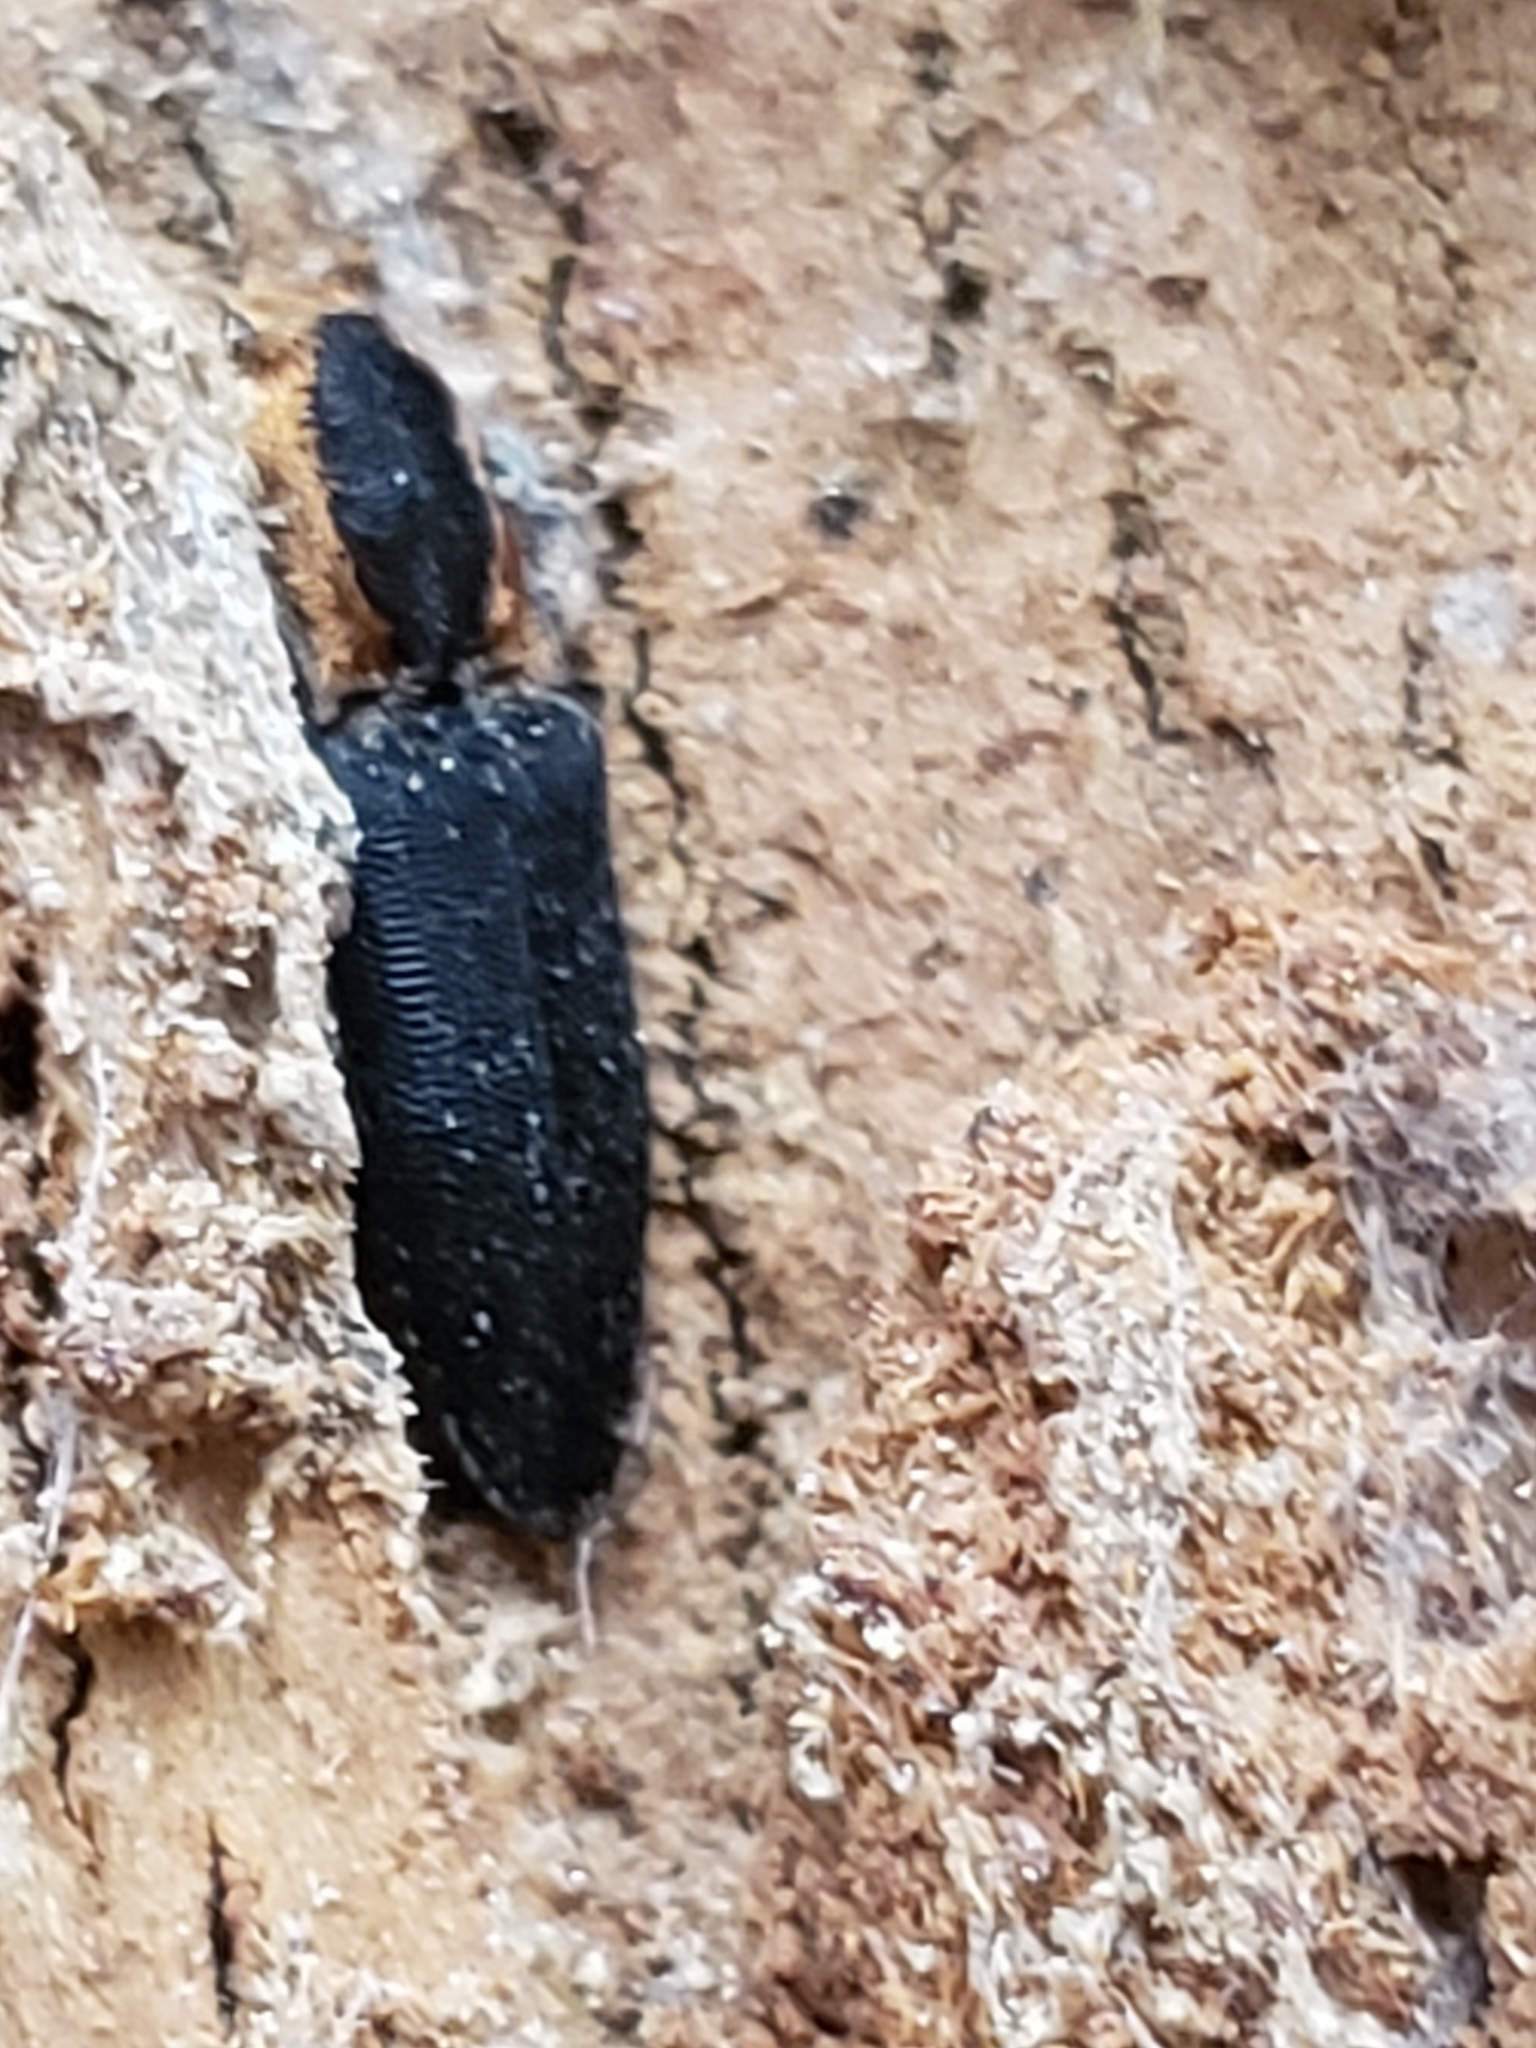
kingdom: Animalia
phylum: Arthropoda
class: Insecta
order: Coleoptera
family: Elateridae
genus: Lacon
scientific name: Lacon discoideus
